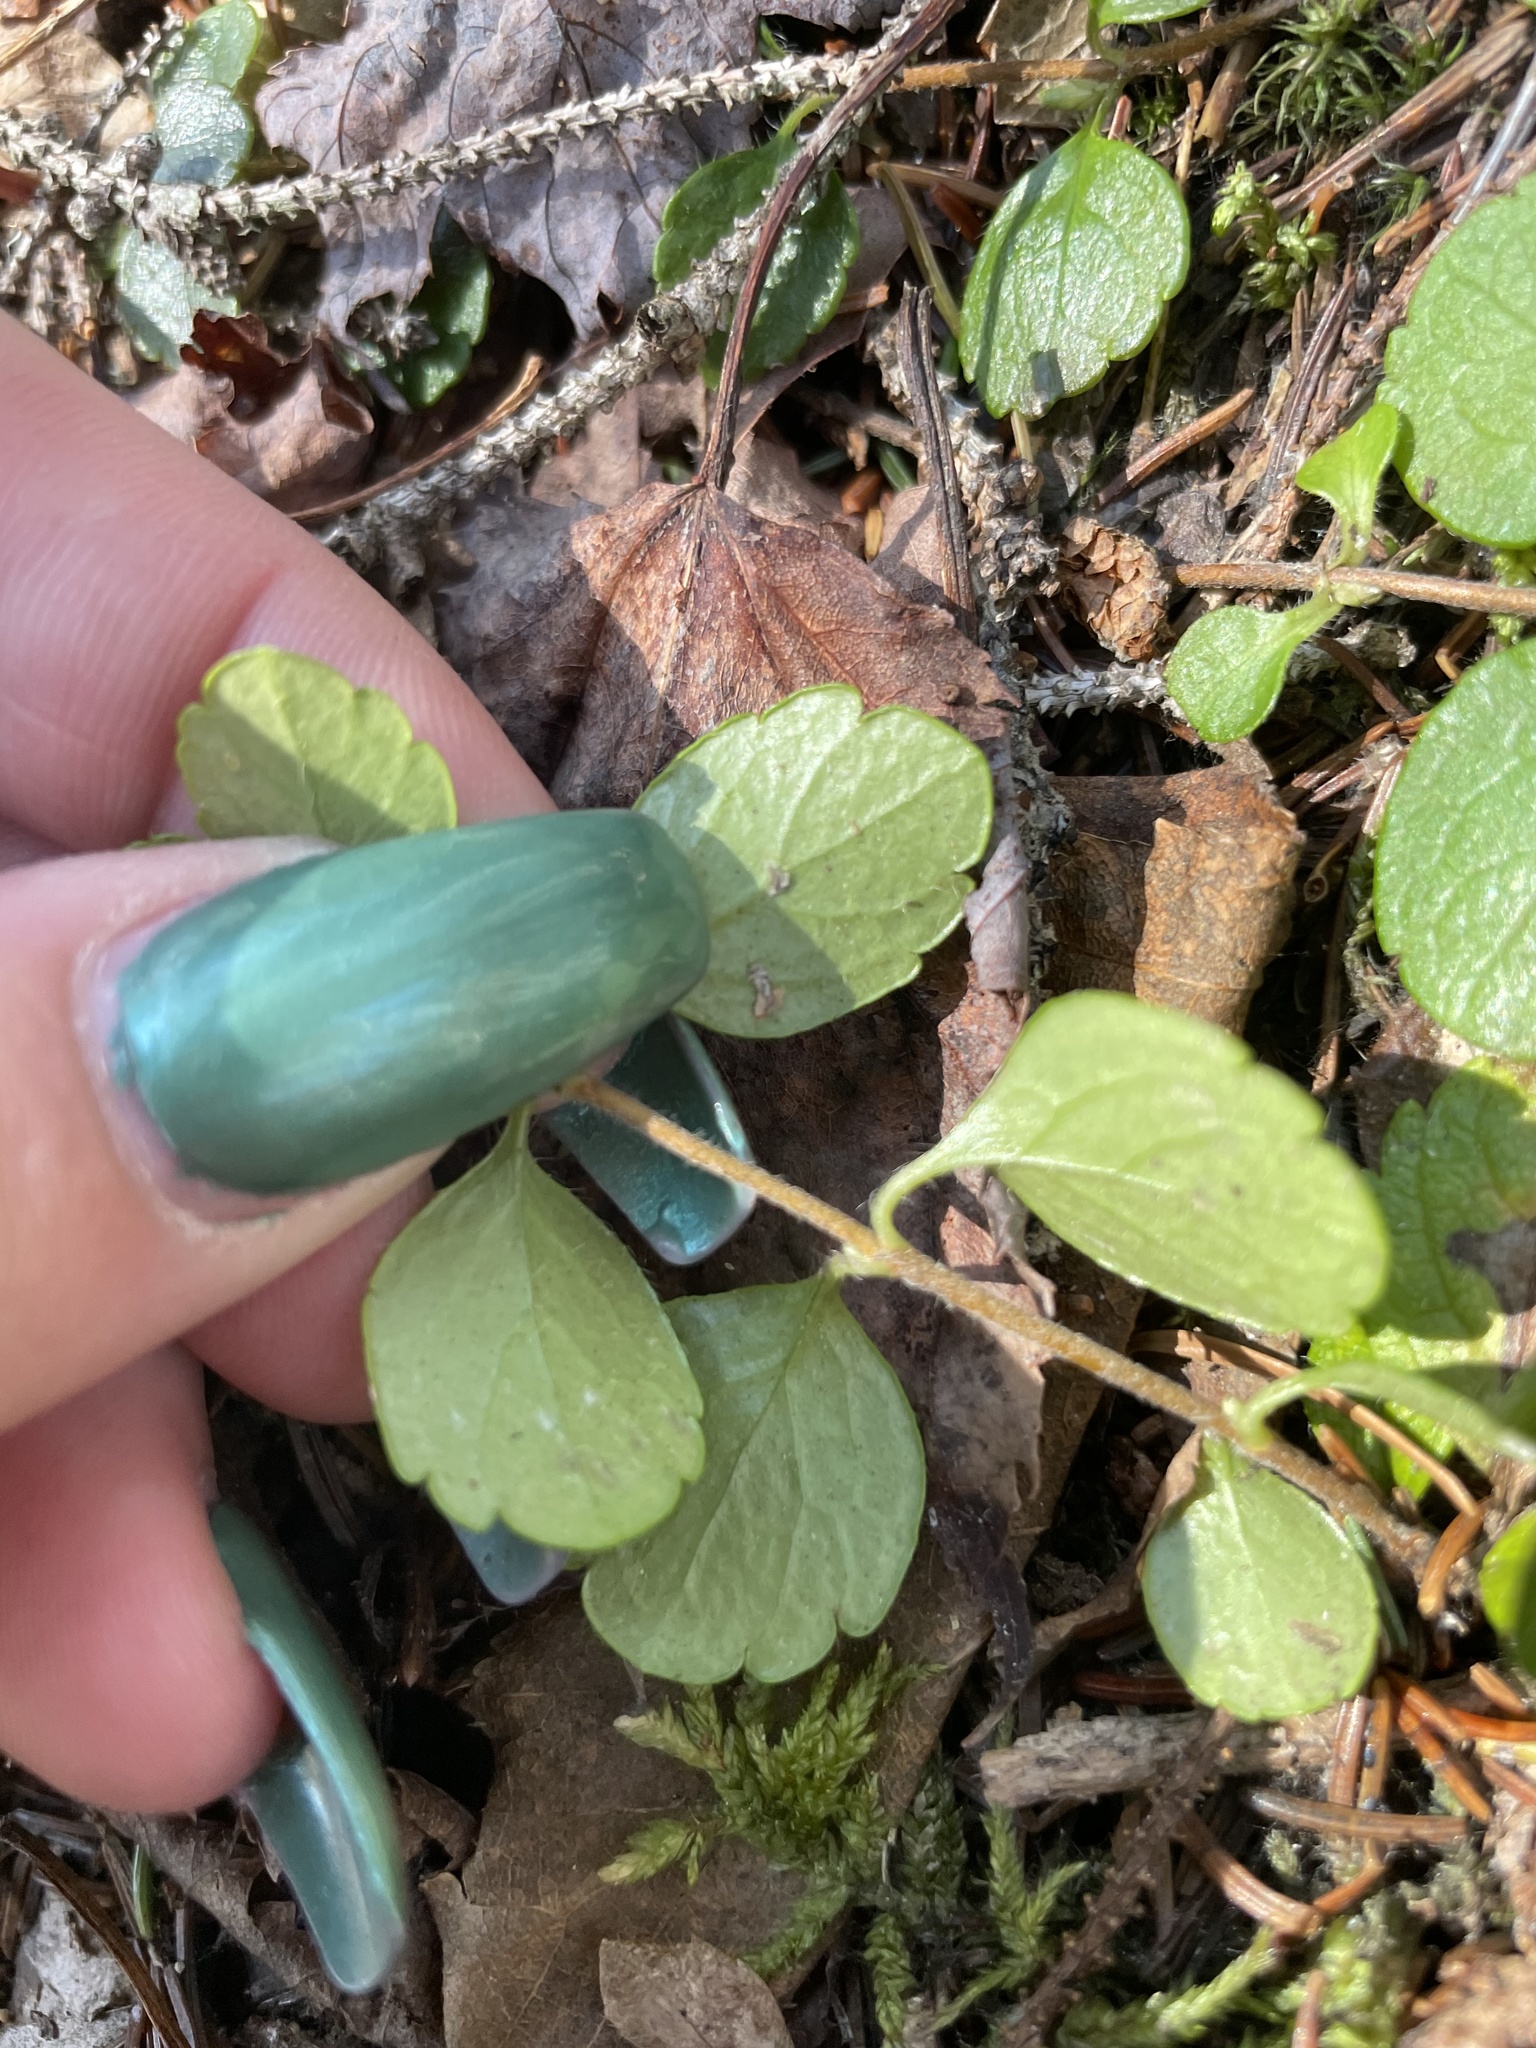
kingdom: Plantae
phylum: Tracheophyta
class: Magnoliopsida
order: Dipsacales
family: Caprifoliaceae
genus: Linnaea
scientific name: Linnaea borealis
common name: Twinflower
